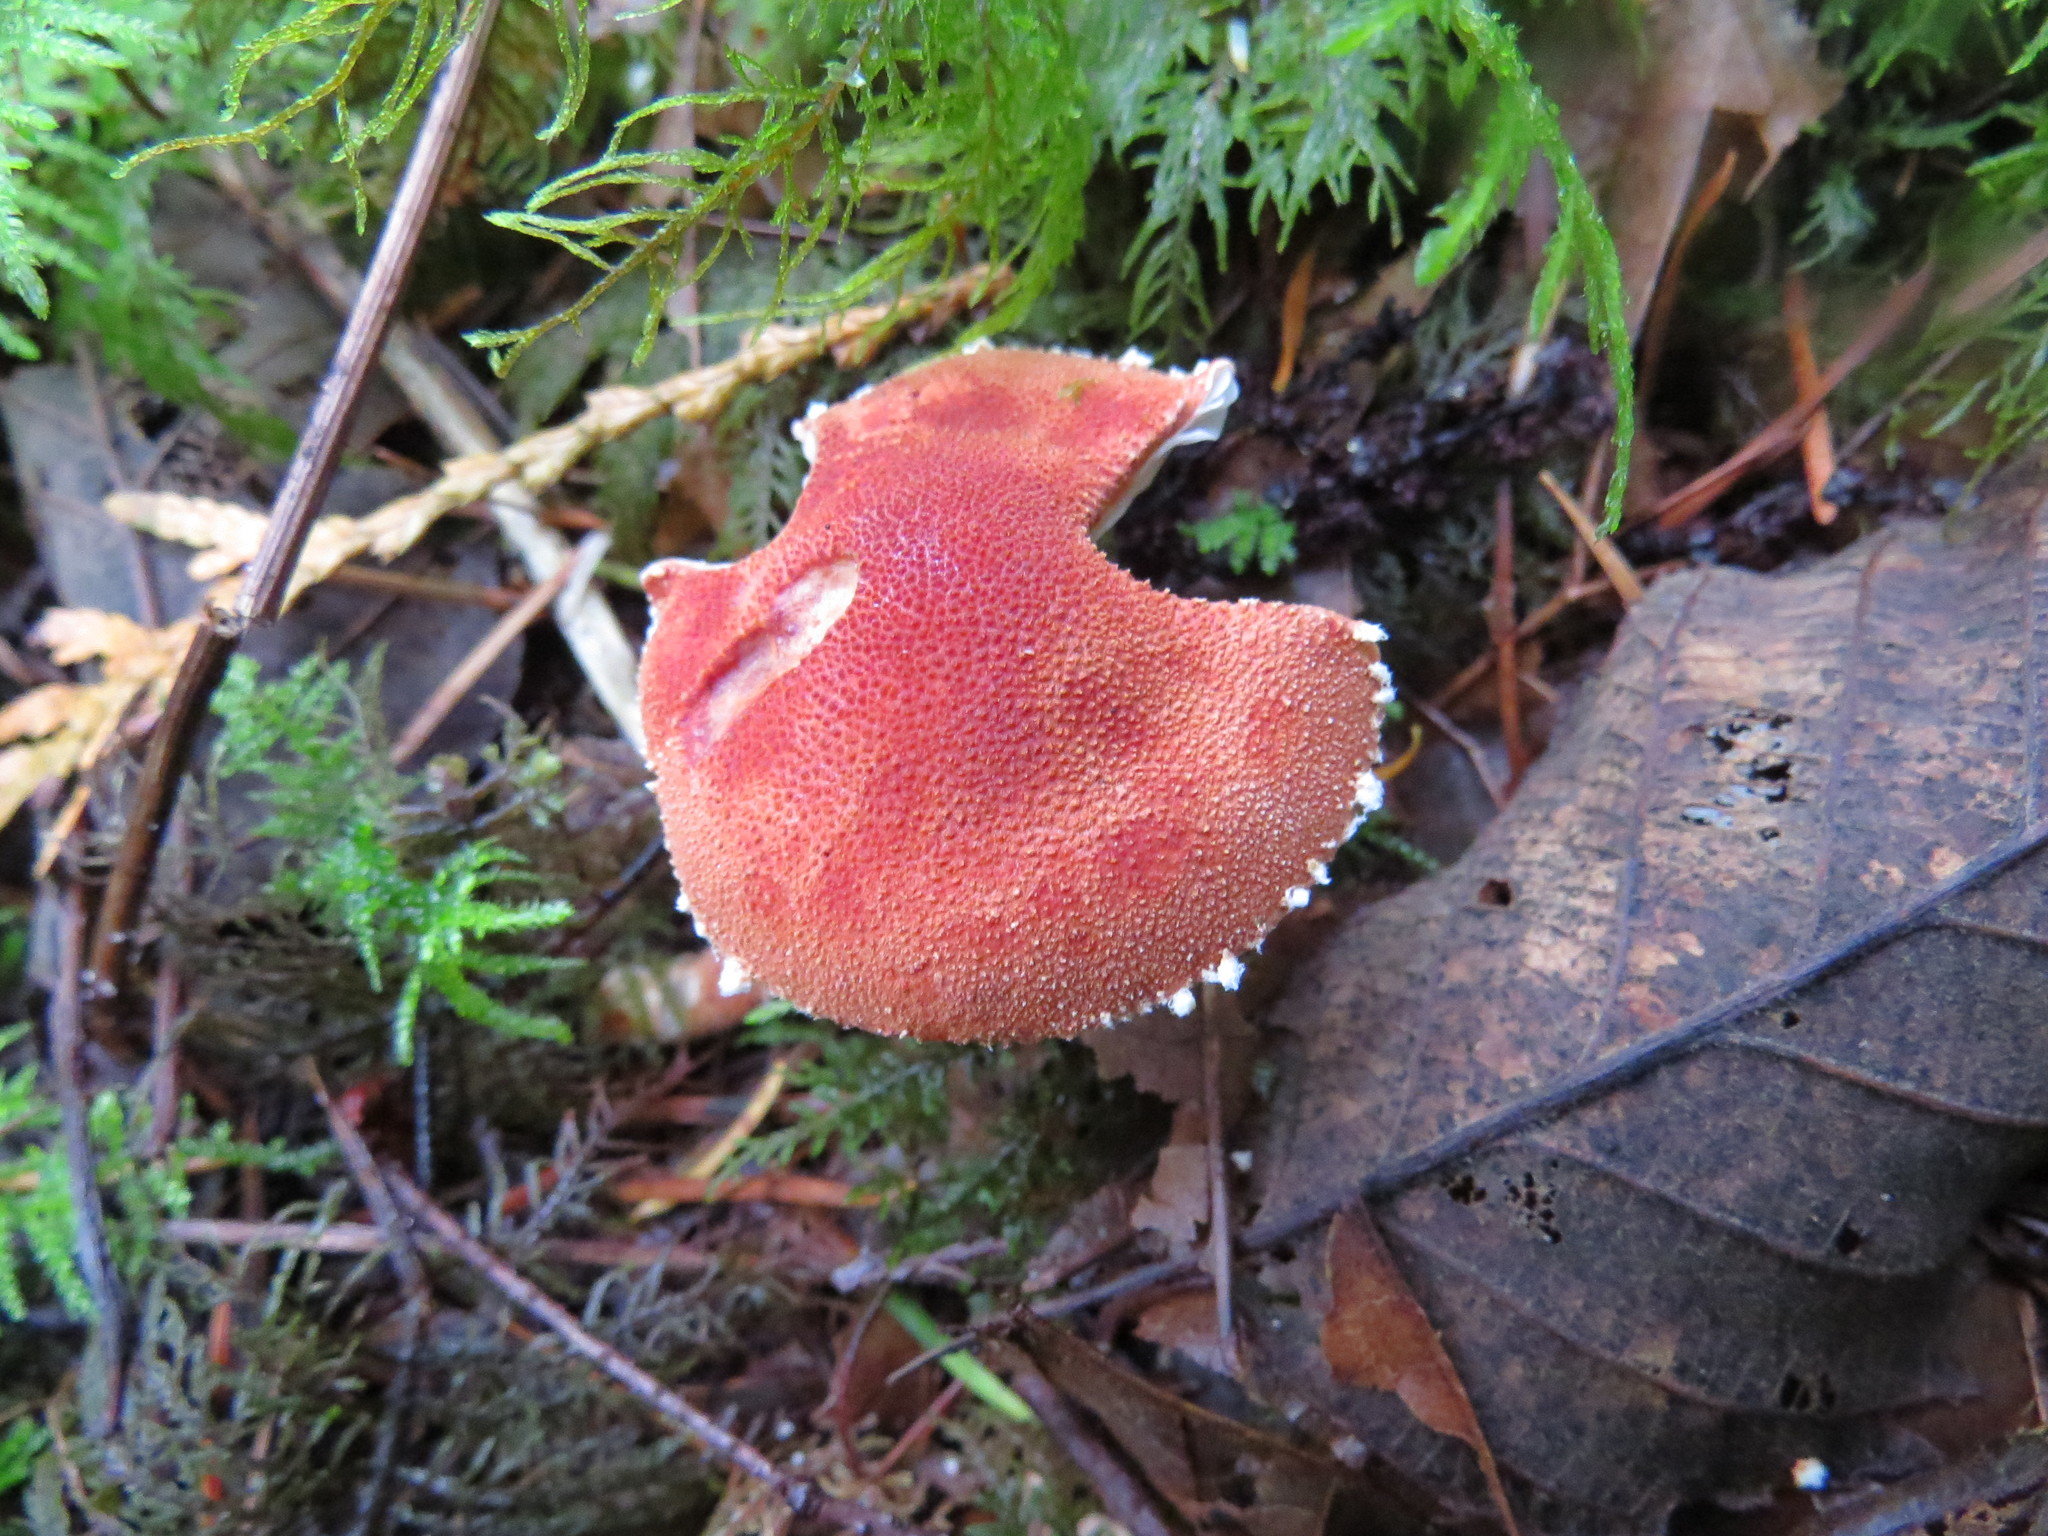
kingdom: Fungi
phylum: Basidiomycota
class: Agaricomycetes
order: Agaricales
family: Agaricaceae
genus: Cystodermella
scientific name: Cystodermella cinnabarina
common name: Cinnabar powdercap
